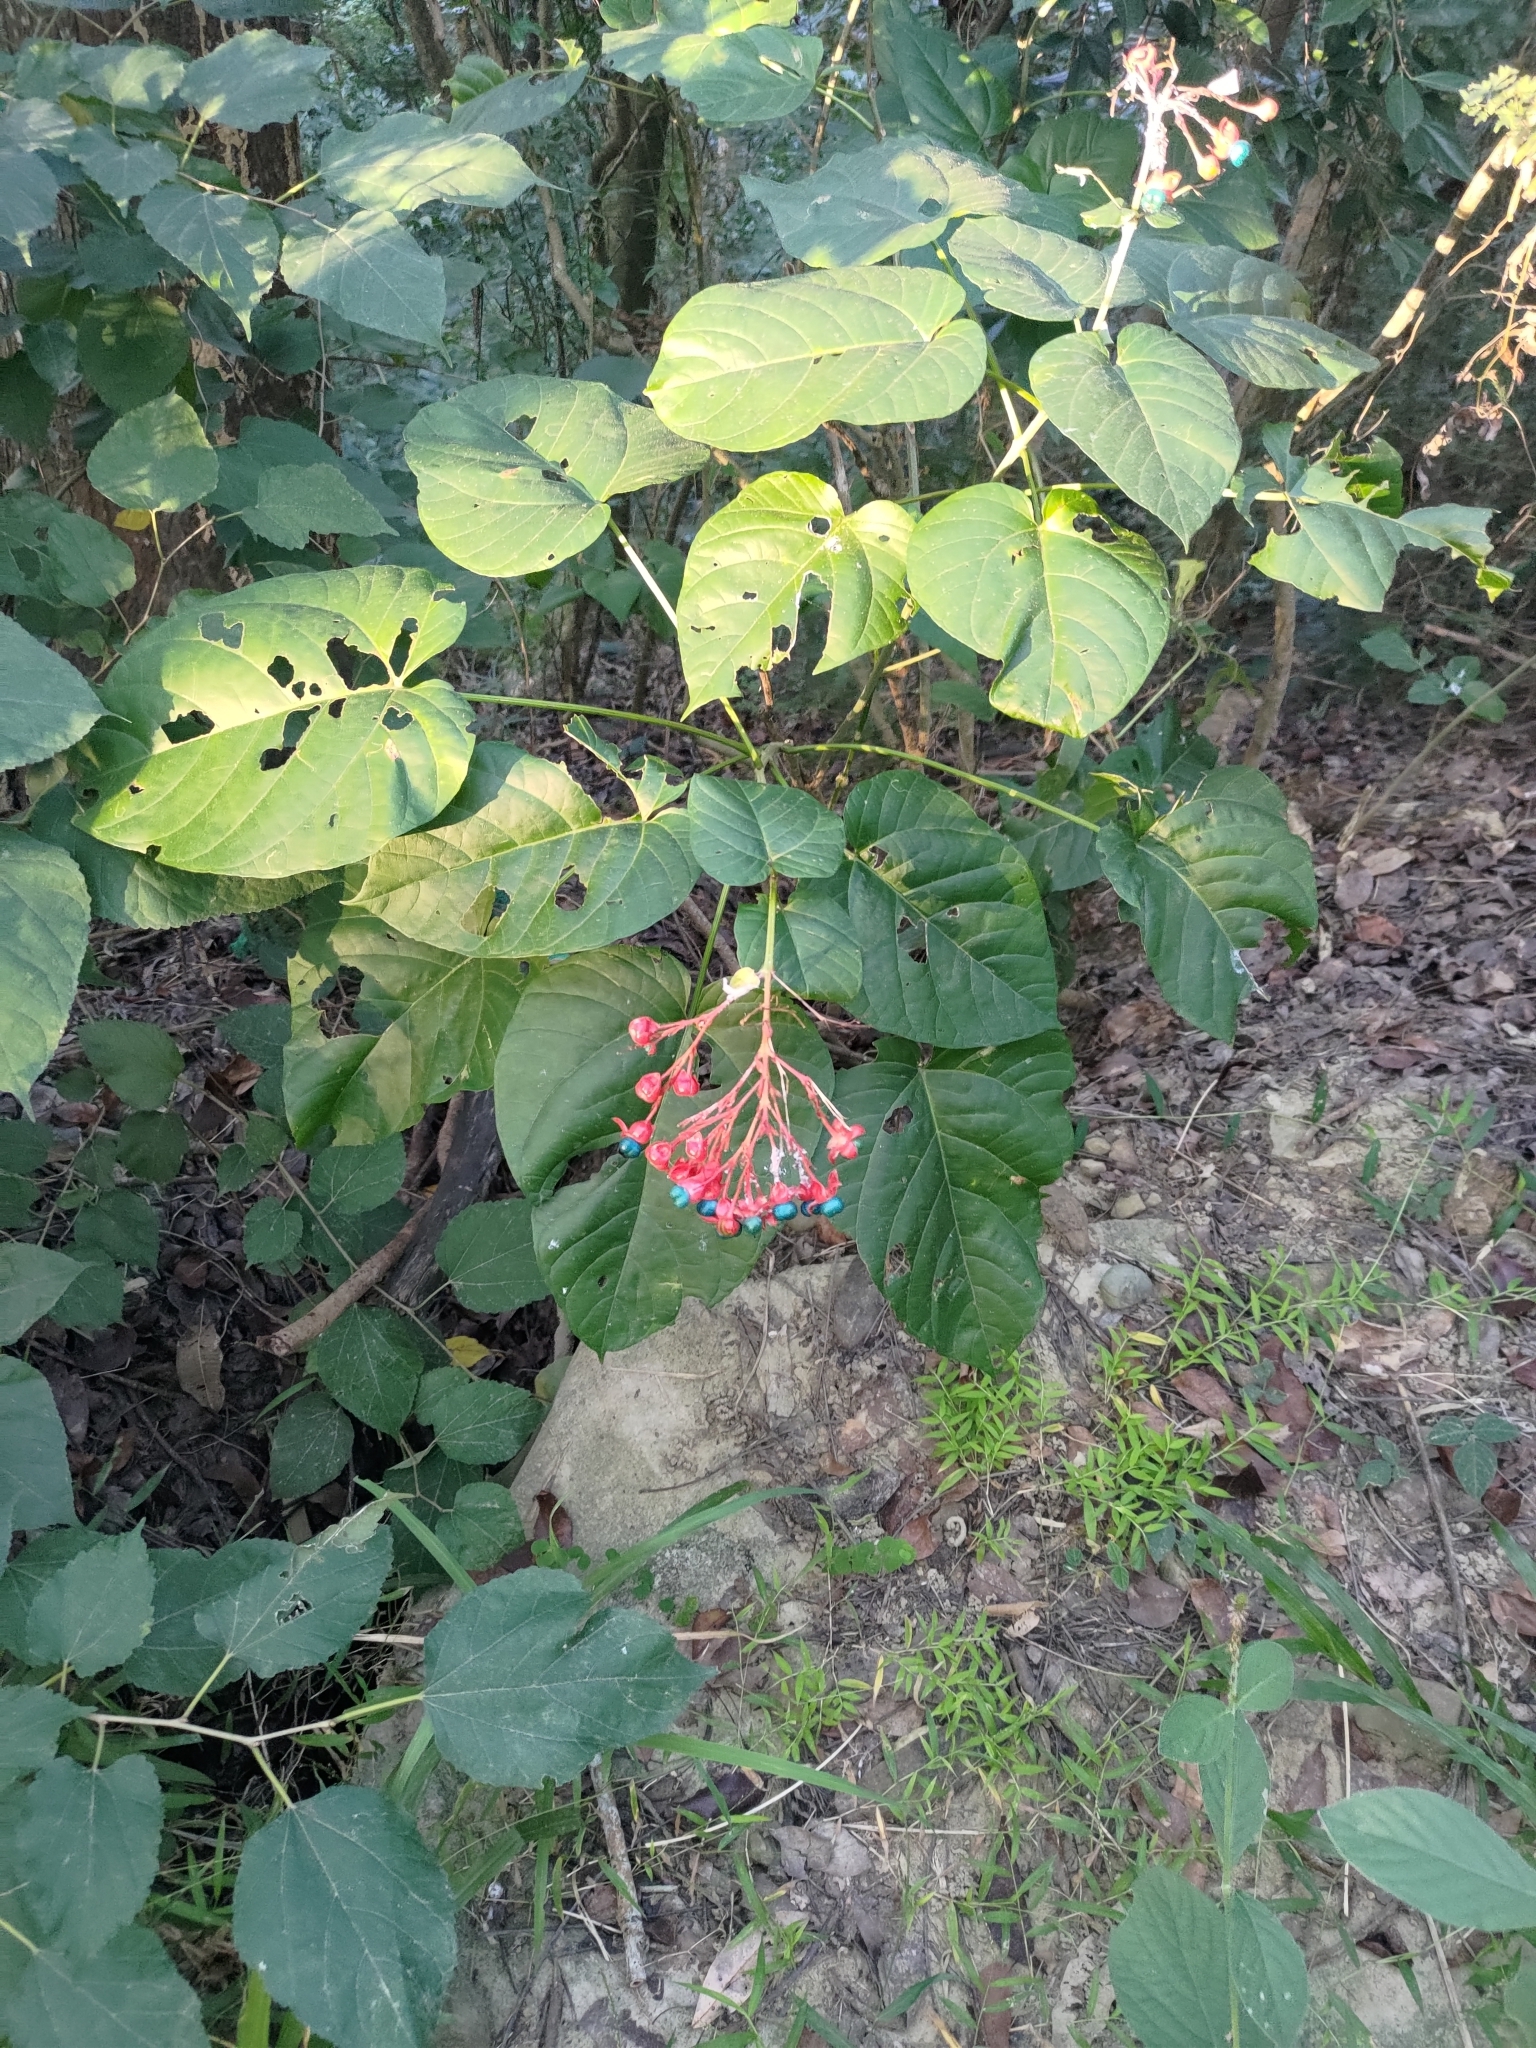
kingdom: Plantae
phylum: Tracheophyta
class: Magnoliopsida
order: Lamiales
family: Lamiaceae
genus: Clerodendrum
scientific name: Clerodendrum japonicum
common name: Japanese glorybower
